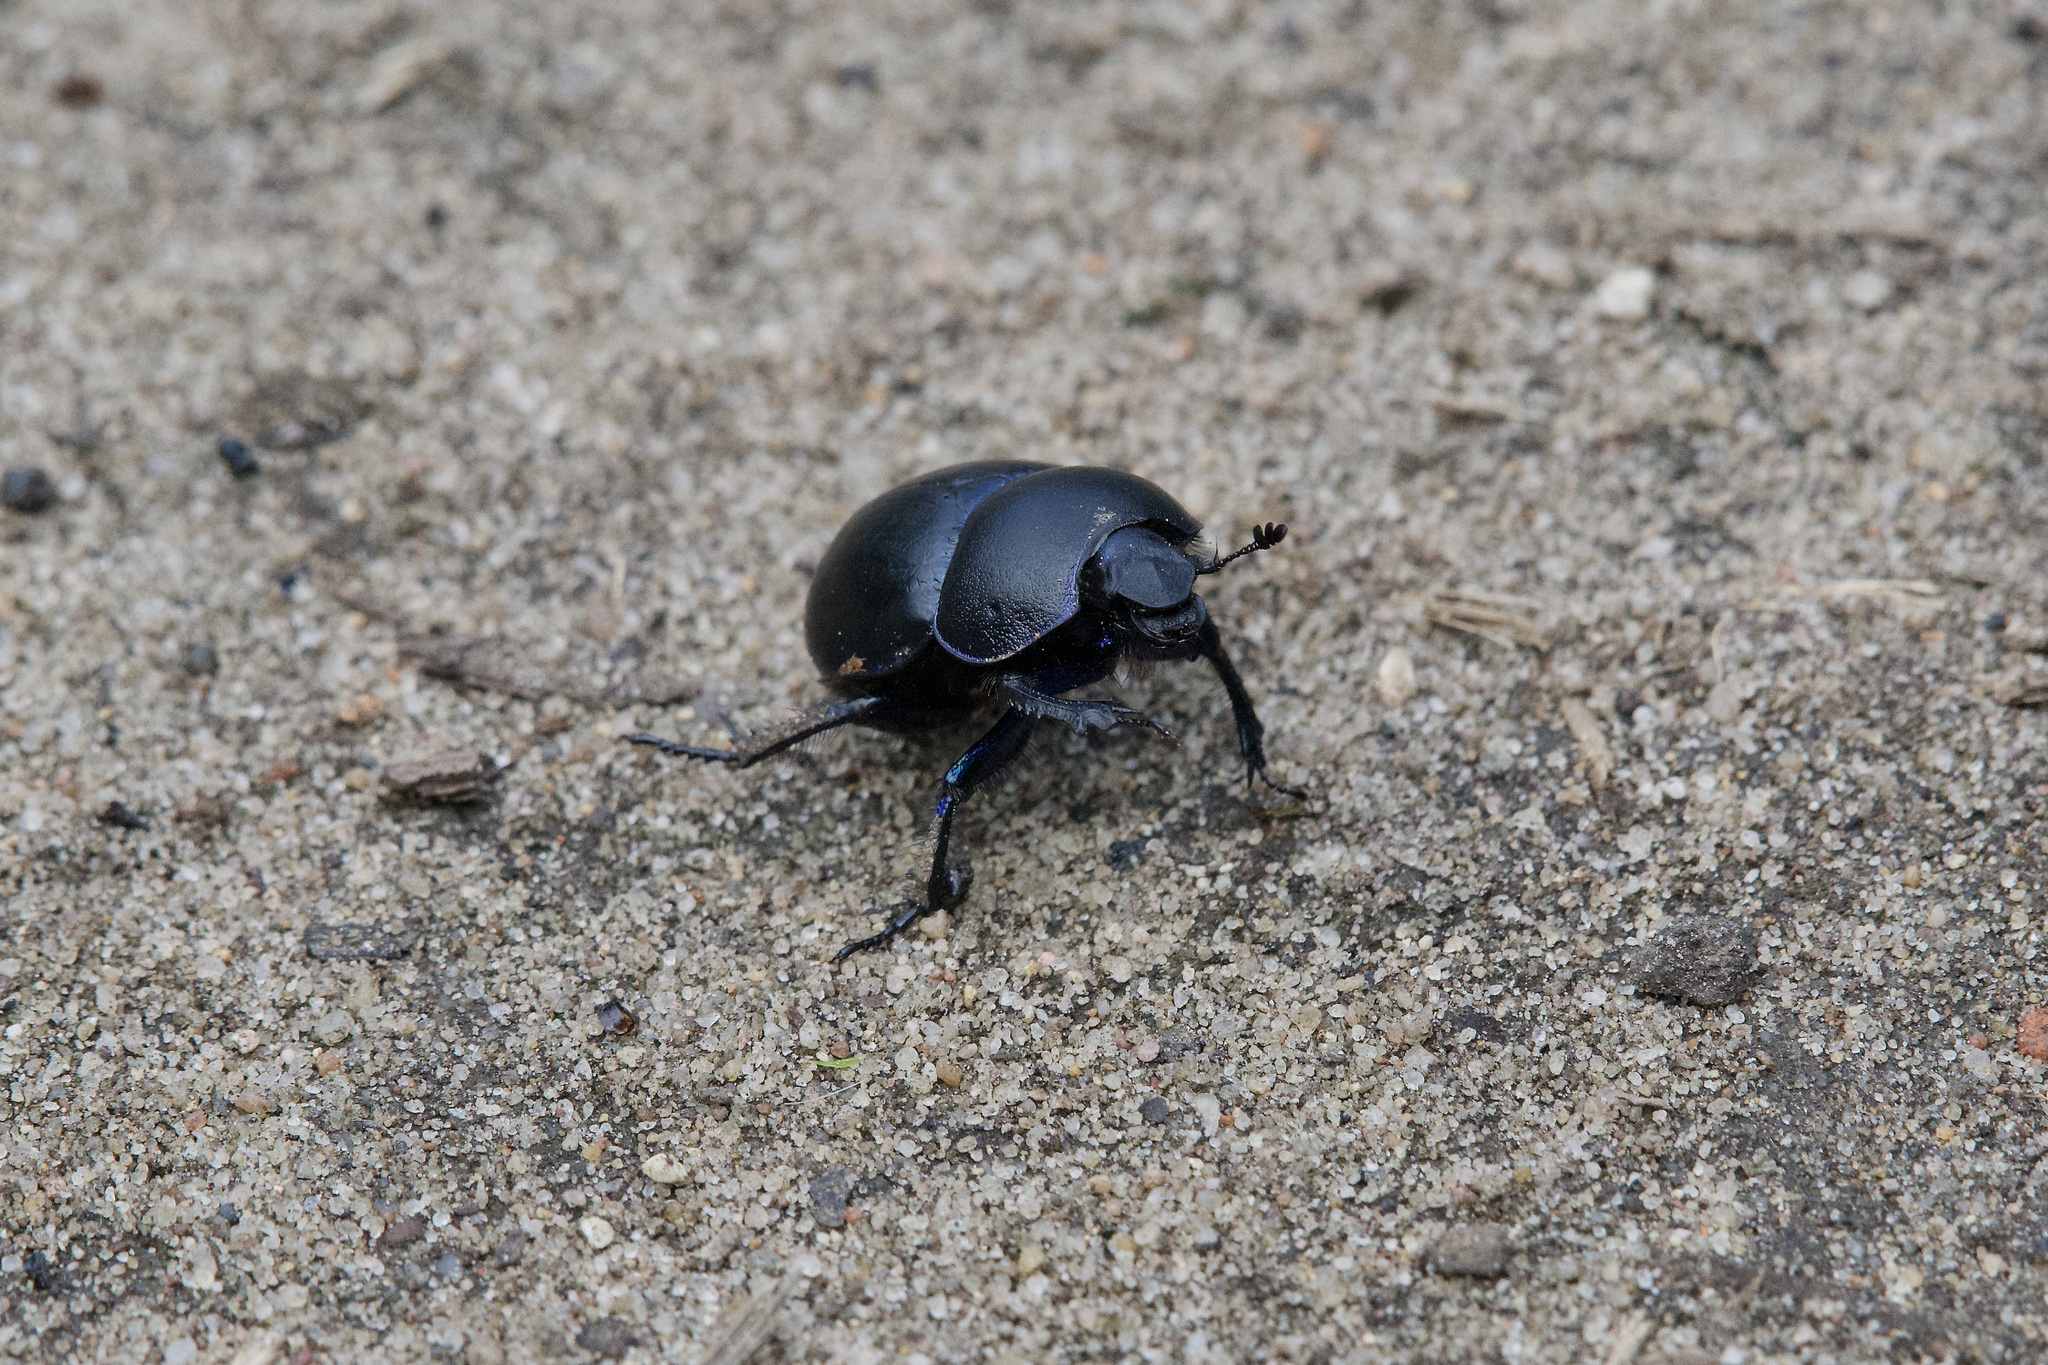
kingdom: Animalia
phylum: Arthropoda
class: Insecta
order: Coleoptera
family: Geotrupidae
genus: Trypocopris
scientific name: Trypocopris vernalis
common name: Spring dumbledor
